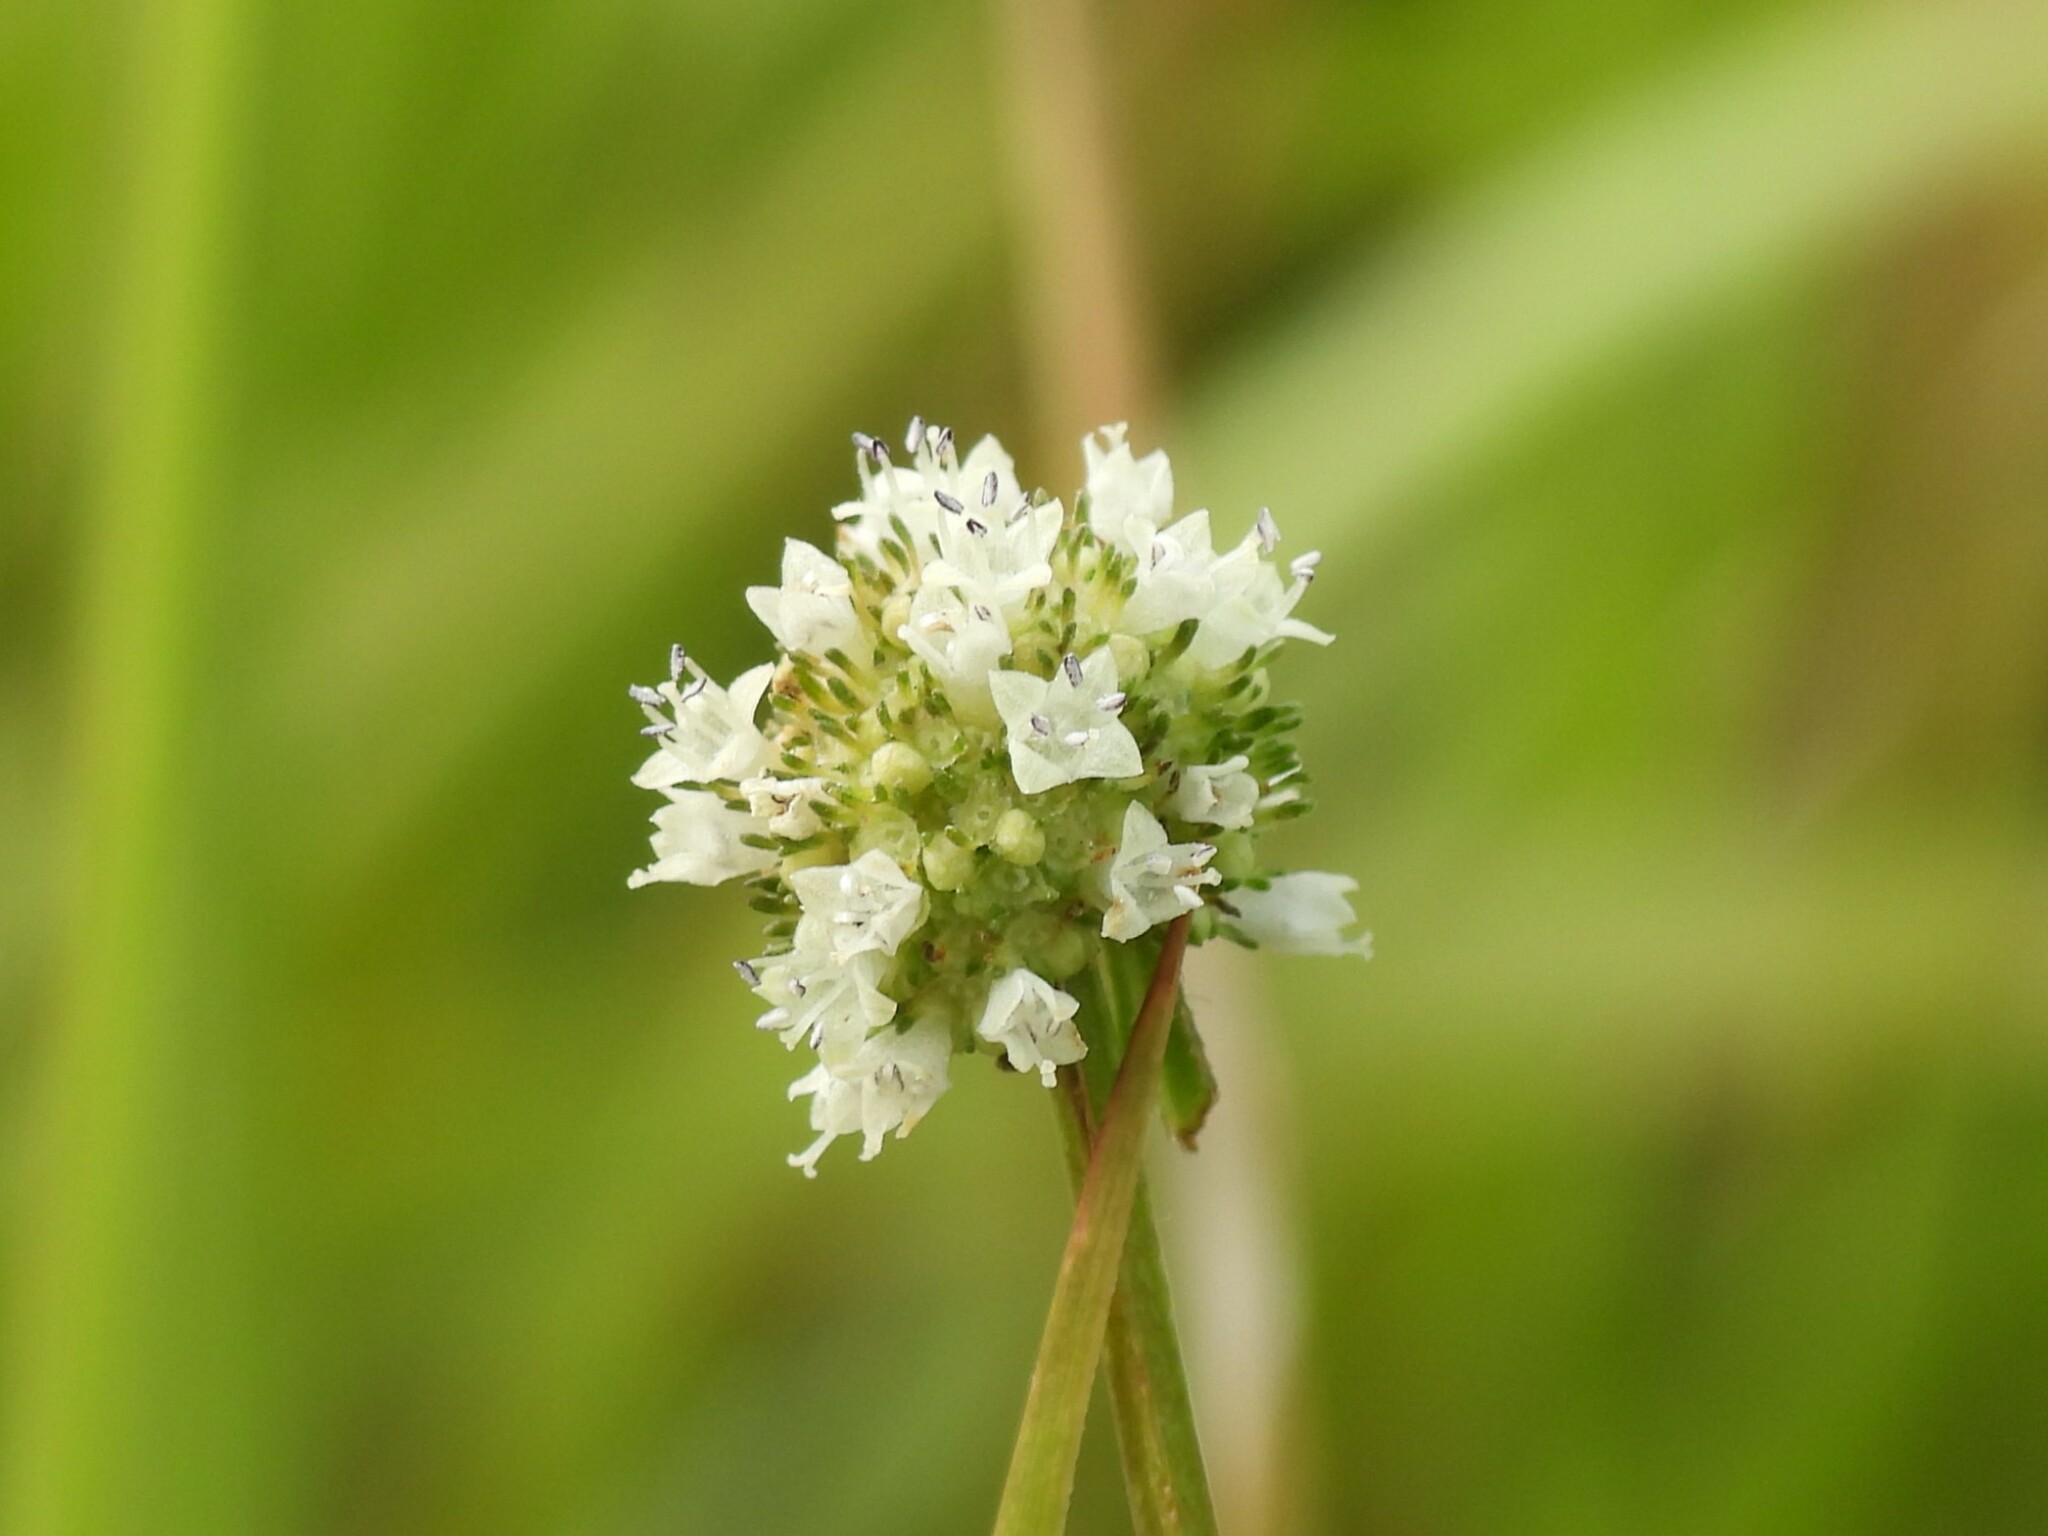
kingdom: Plantae
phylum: Tracheophyta
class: Magnoliopsida
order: Gentianales
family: Rubiaceae
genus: Spermacoce
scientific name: Spermacoce verticillata
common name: Shrubby false buttonweed
